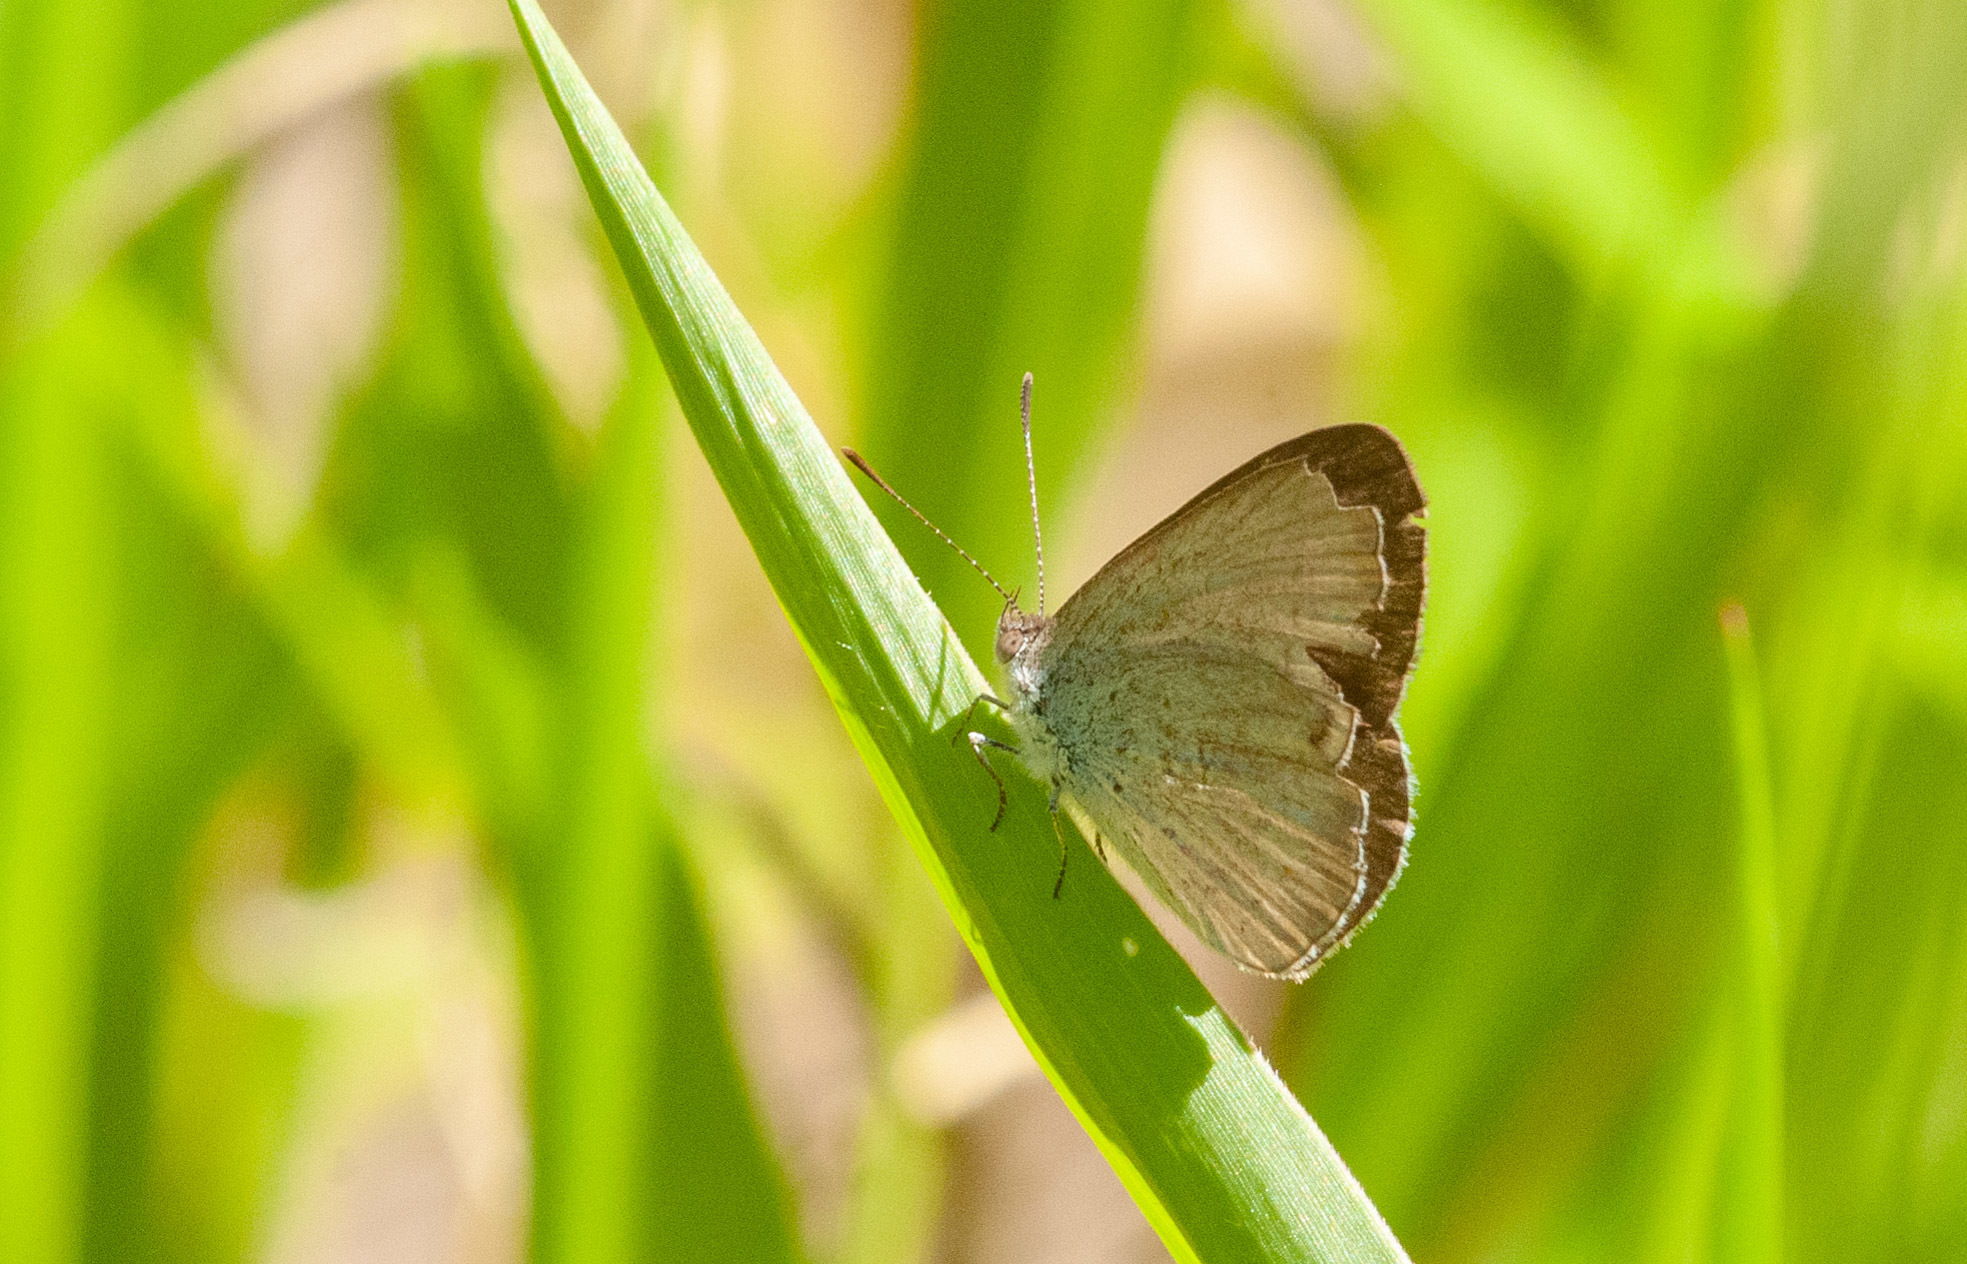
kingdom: Animalia
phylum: Arthropoda
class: Insecta
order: Lepidoptera
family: Lycaenidae
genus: Zizina
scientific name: Zizina labradus
